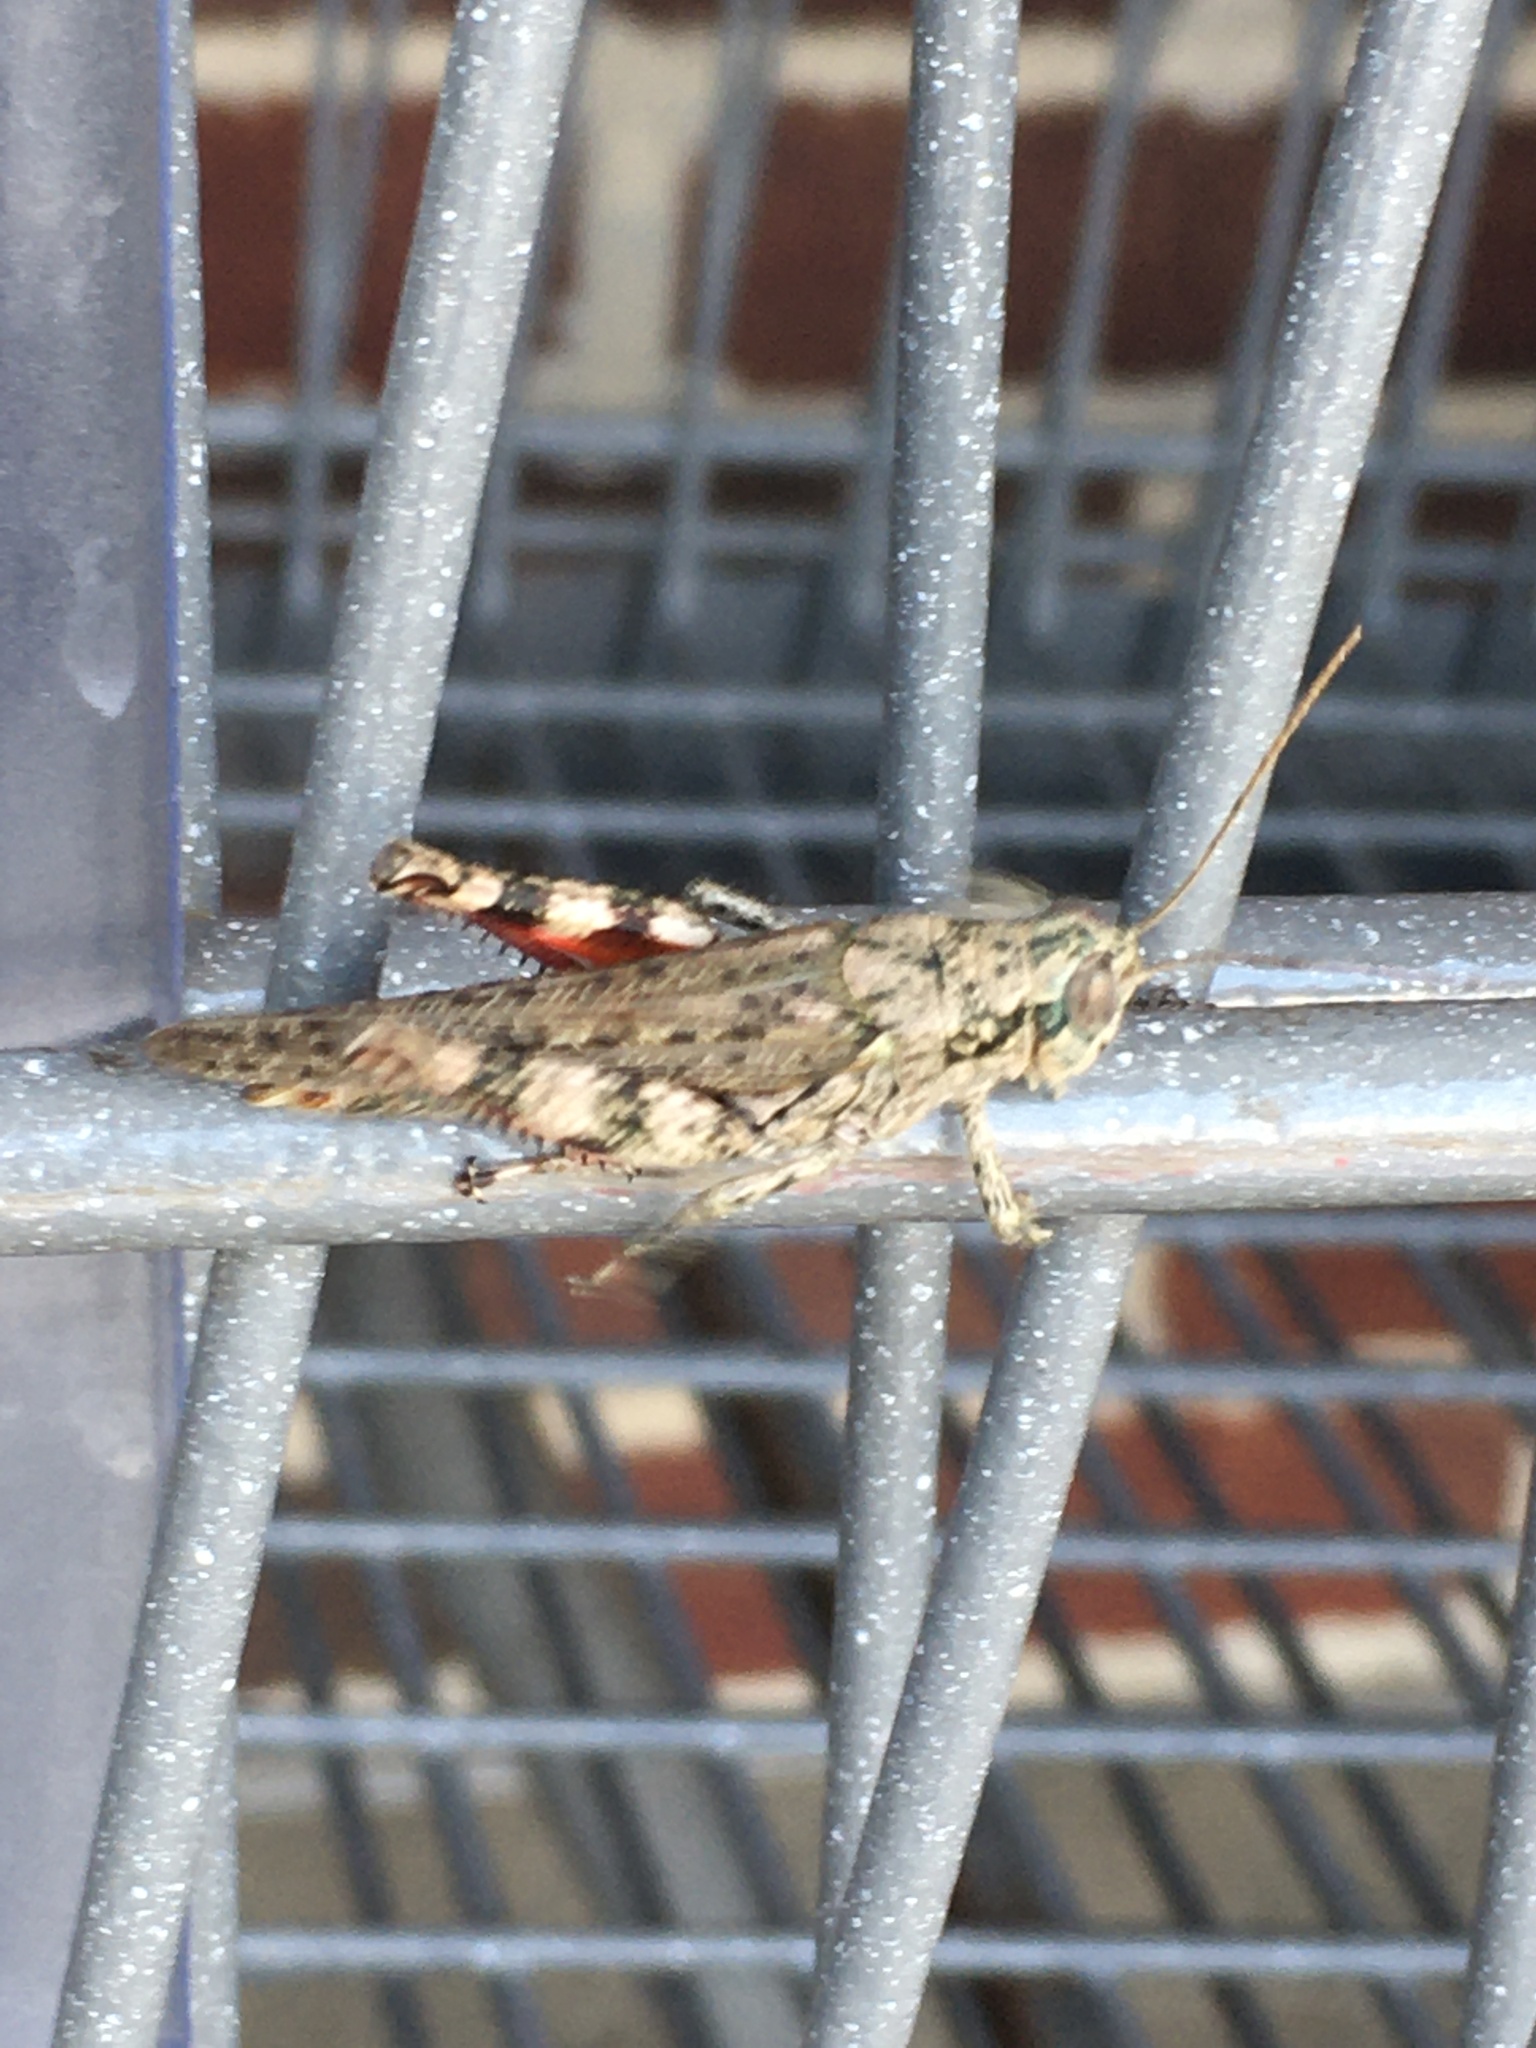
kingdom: Animalia
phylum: Arthropoda
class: Insecta
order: Orthoptera
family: Acrididae
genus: Melanoplus
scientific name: Melanoplus punctulatus
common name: Pine-tree spur-throat grasshopper
